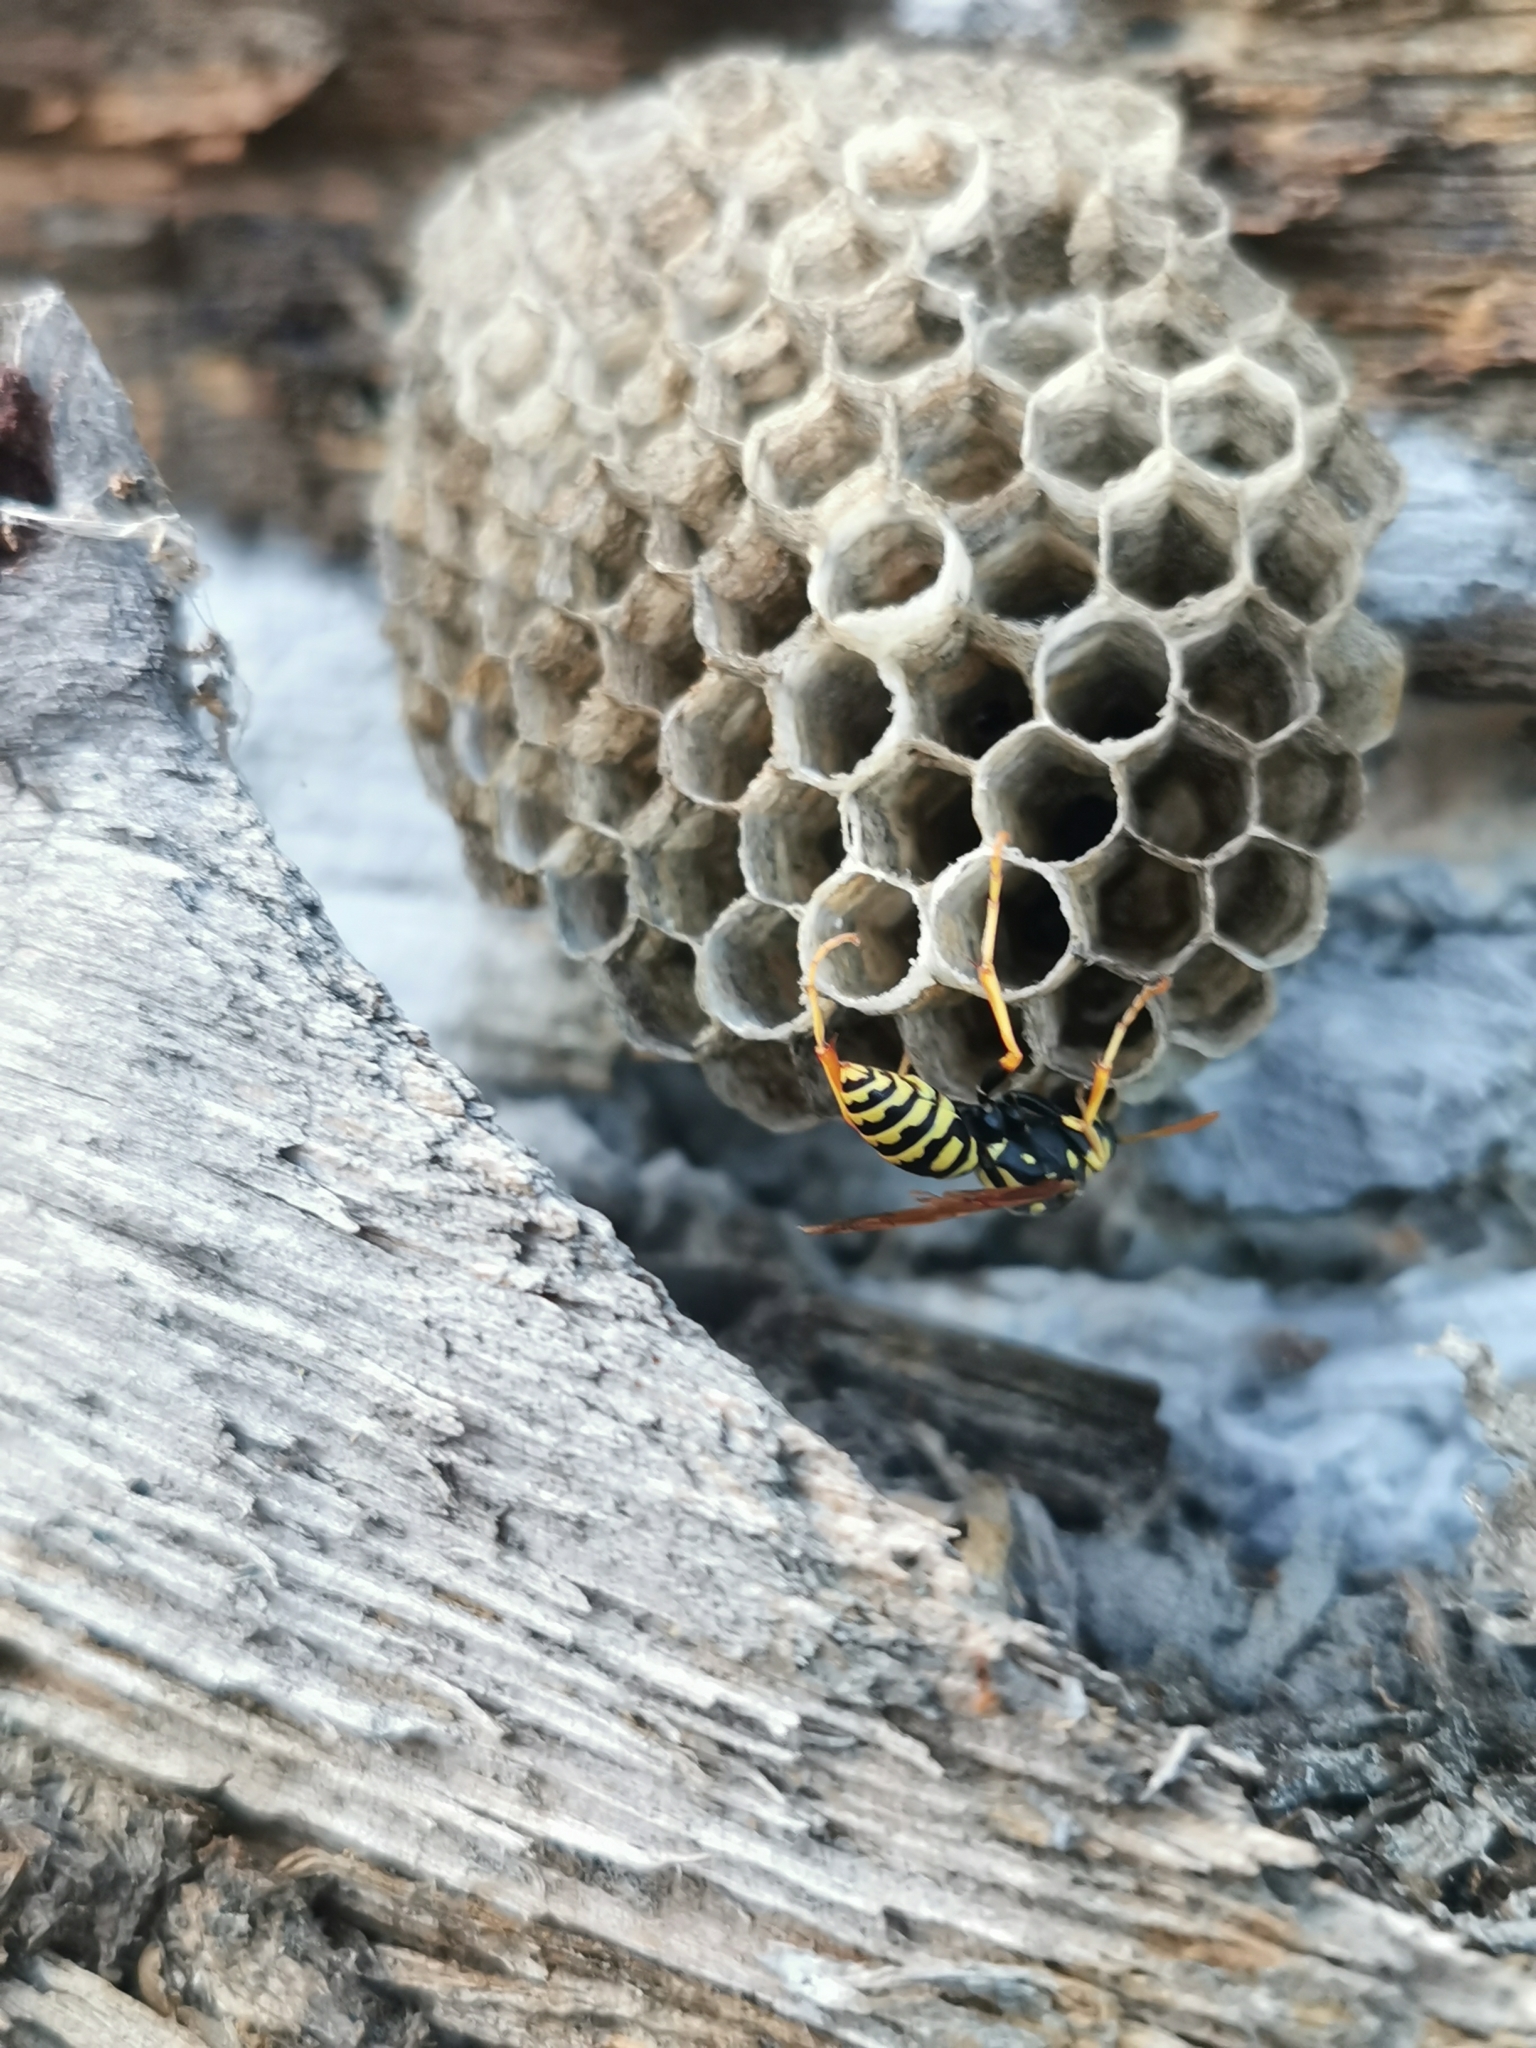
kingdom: Animalia
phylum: Arthropoda
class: Insecta
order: Hymenoptera
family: Eumenidae
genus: Polistes
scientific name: Polistes dominula
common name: Paper wasp
